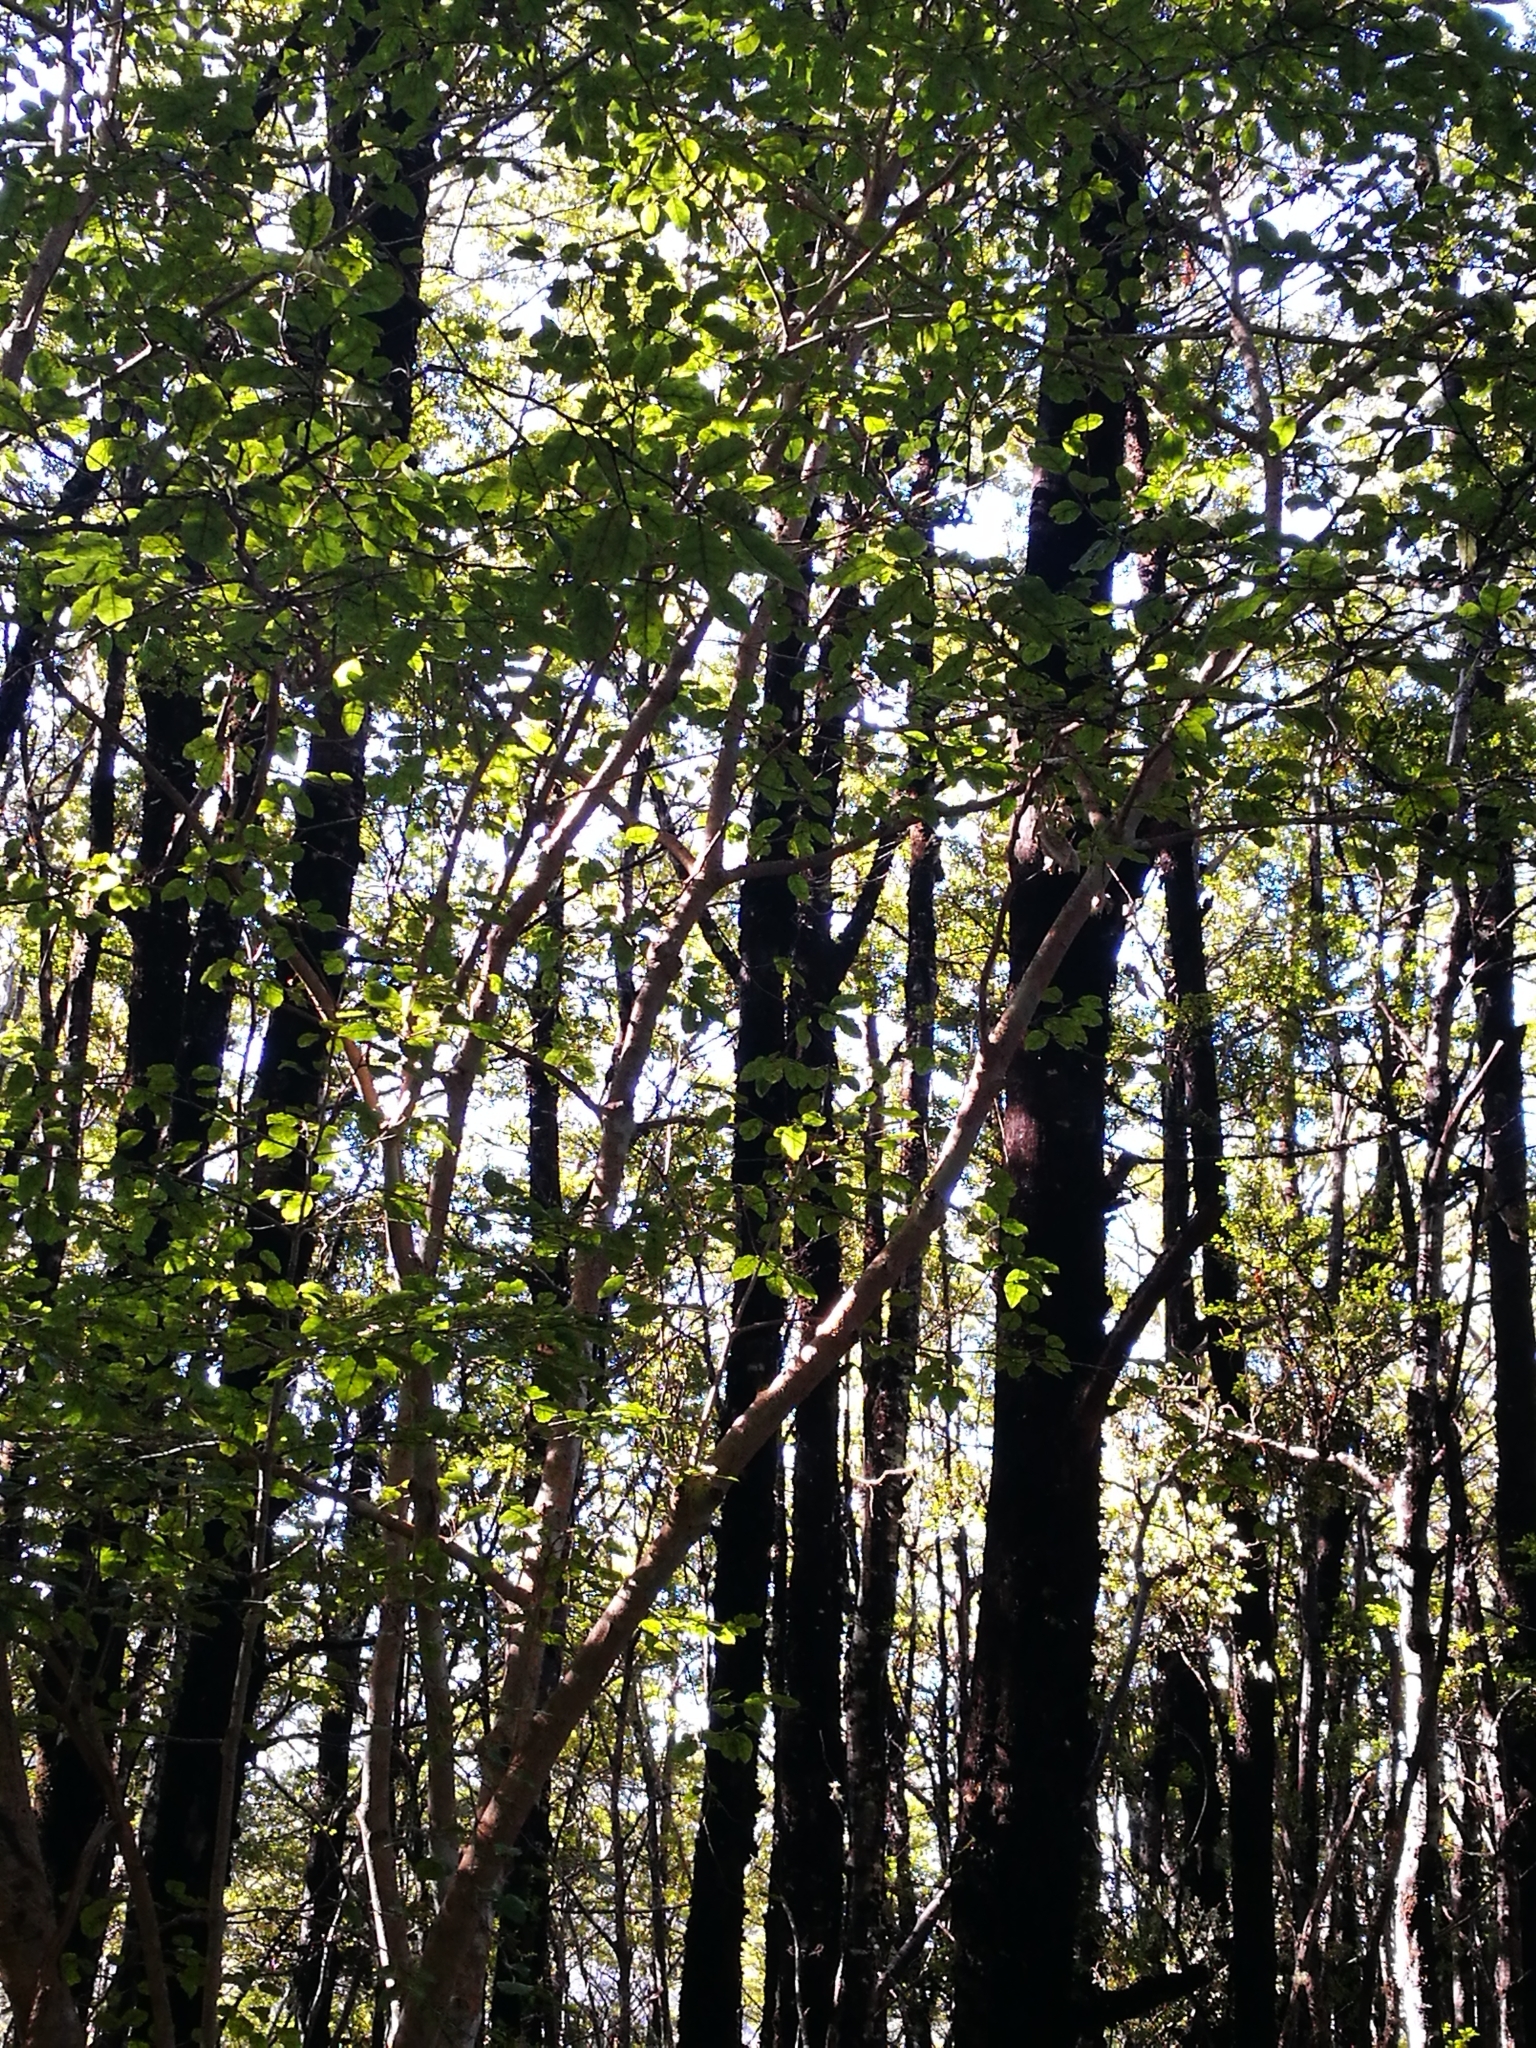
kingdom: Plantae
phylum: Tracheophyta
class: Magnoliopsida
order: Asterales
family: Rousseaceae
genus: Carpodetus
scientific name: Carpodetus serratus
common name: White mapau
